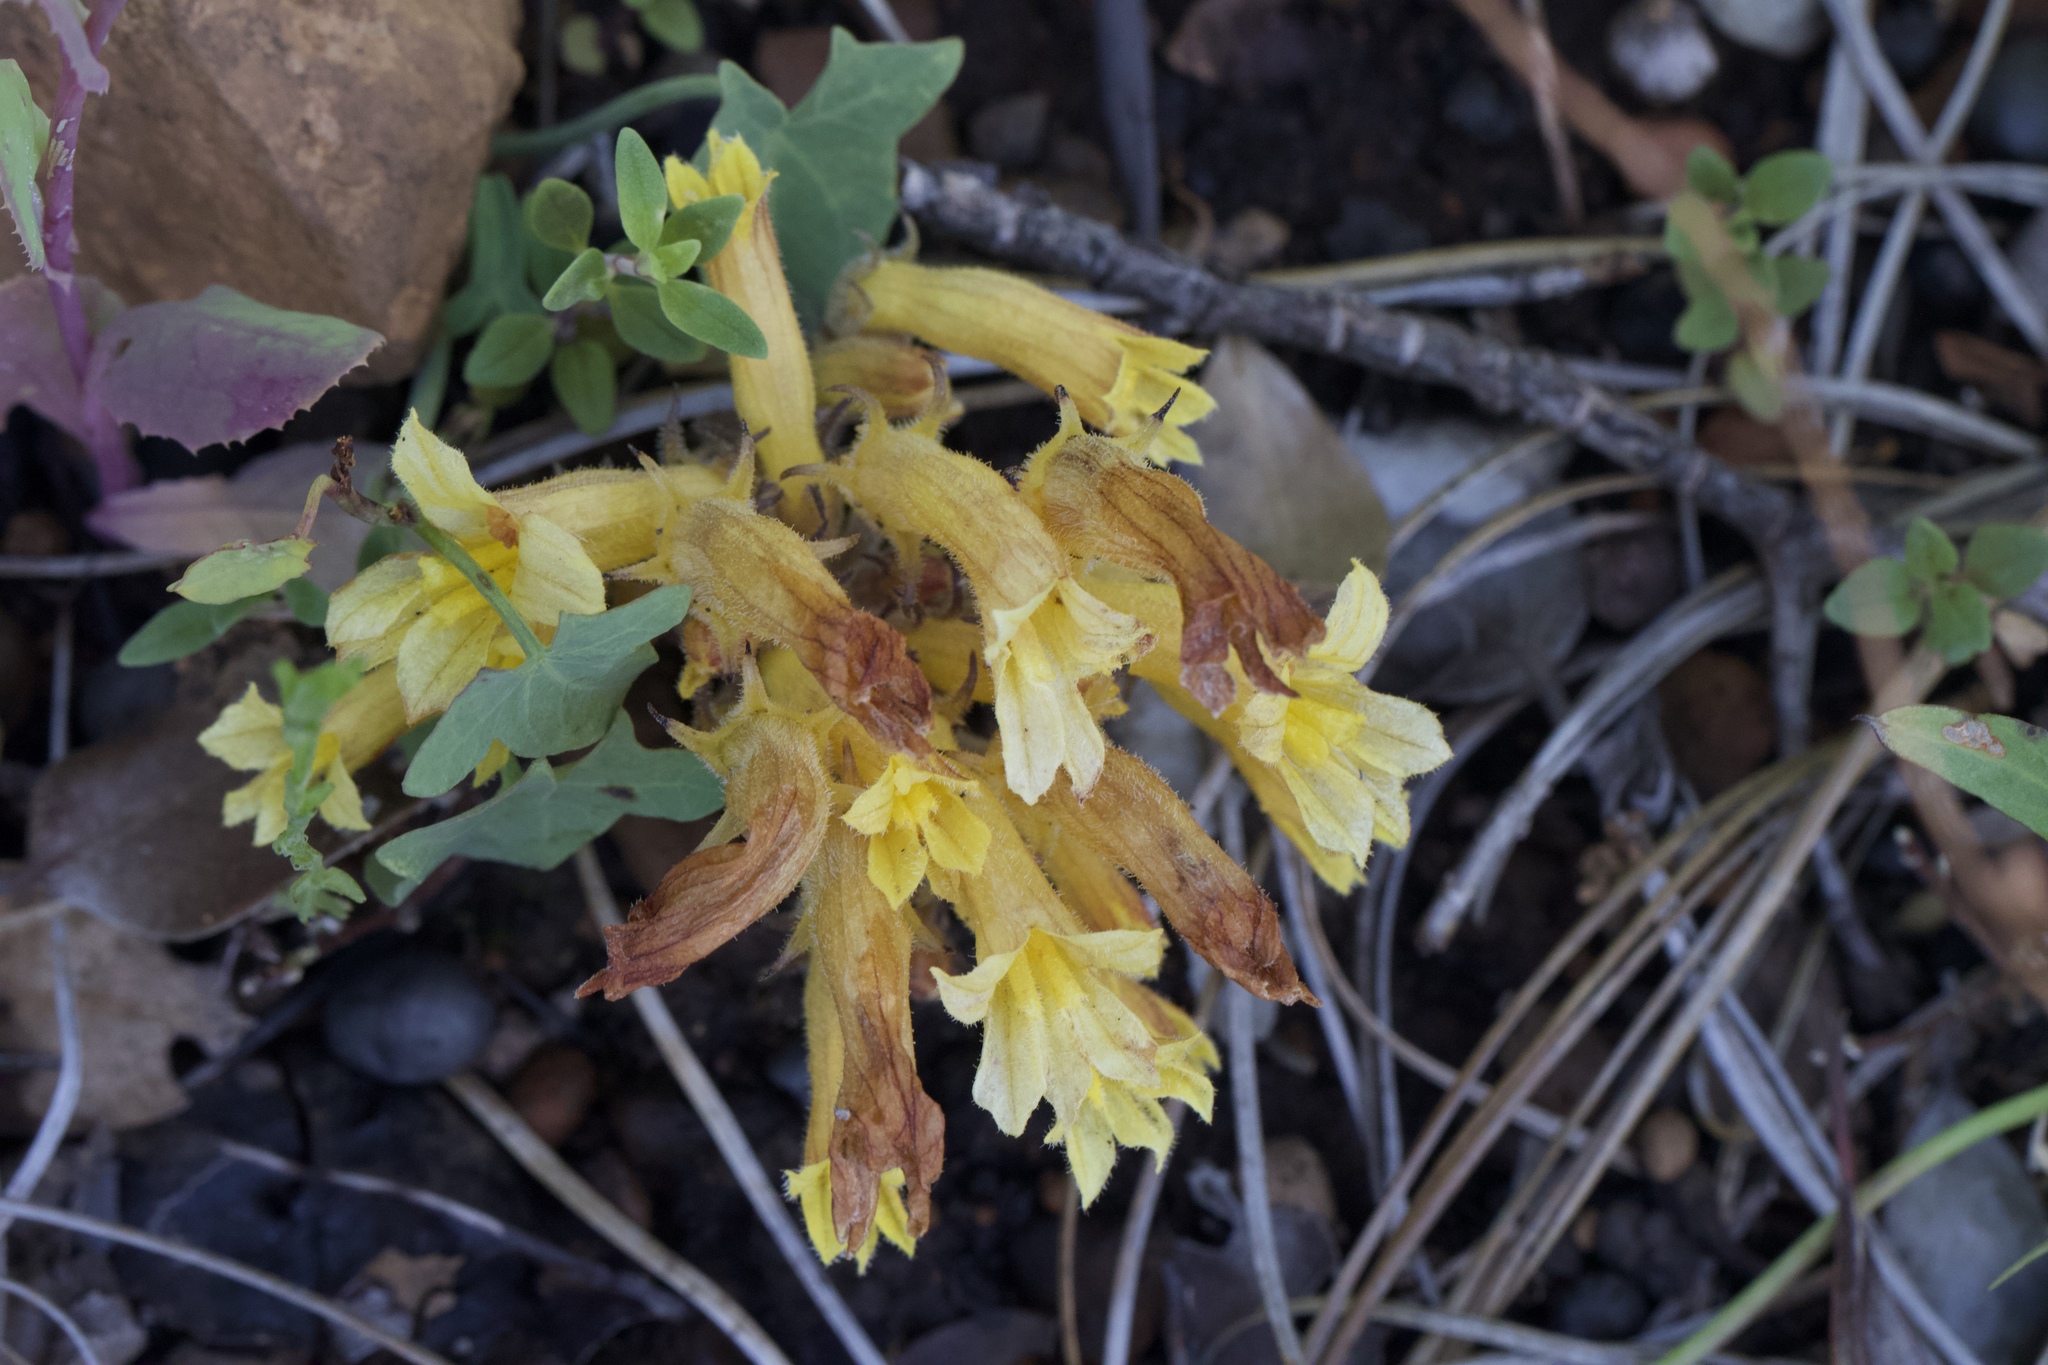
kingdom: Plantae
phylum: Tracheophyta
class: Magnoliopsida
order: Lamiales
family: Orobanchaceae
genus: Aphyllon
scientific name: Aphyllon franciscanum
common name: San francisco broomrape
